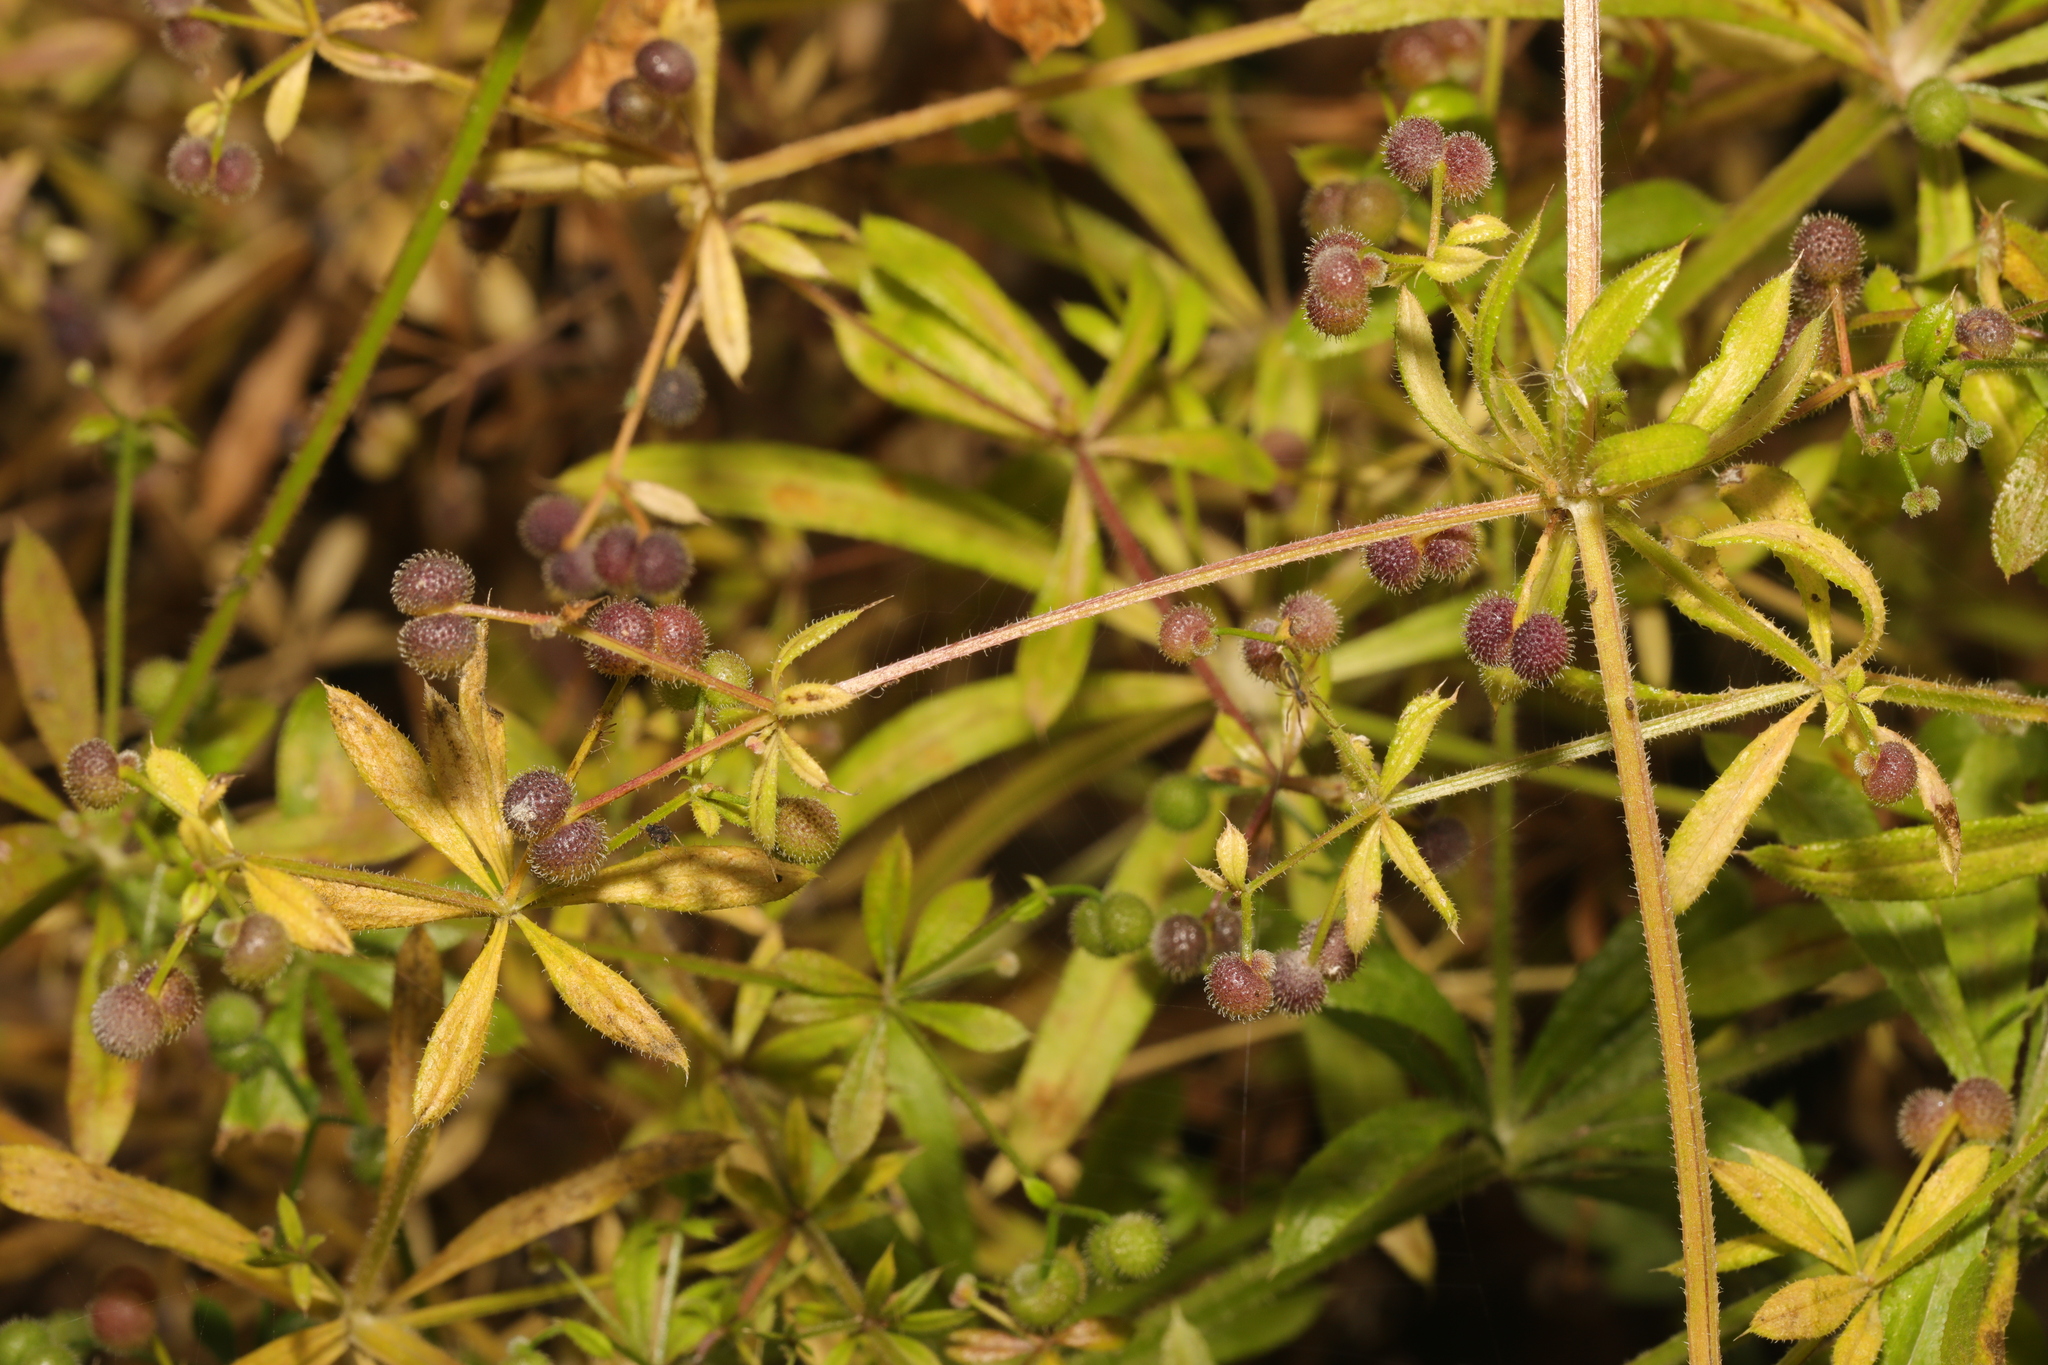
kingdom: Plantae
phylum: Tracheophyta
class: Magnoliopsida
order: Gentianales
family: Rubiaceae
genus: Galium
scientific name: Galium aparine
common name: Cleavers
